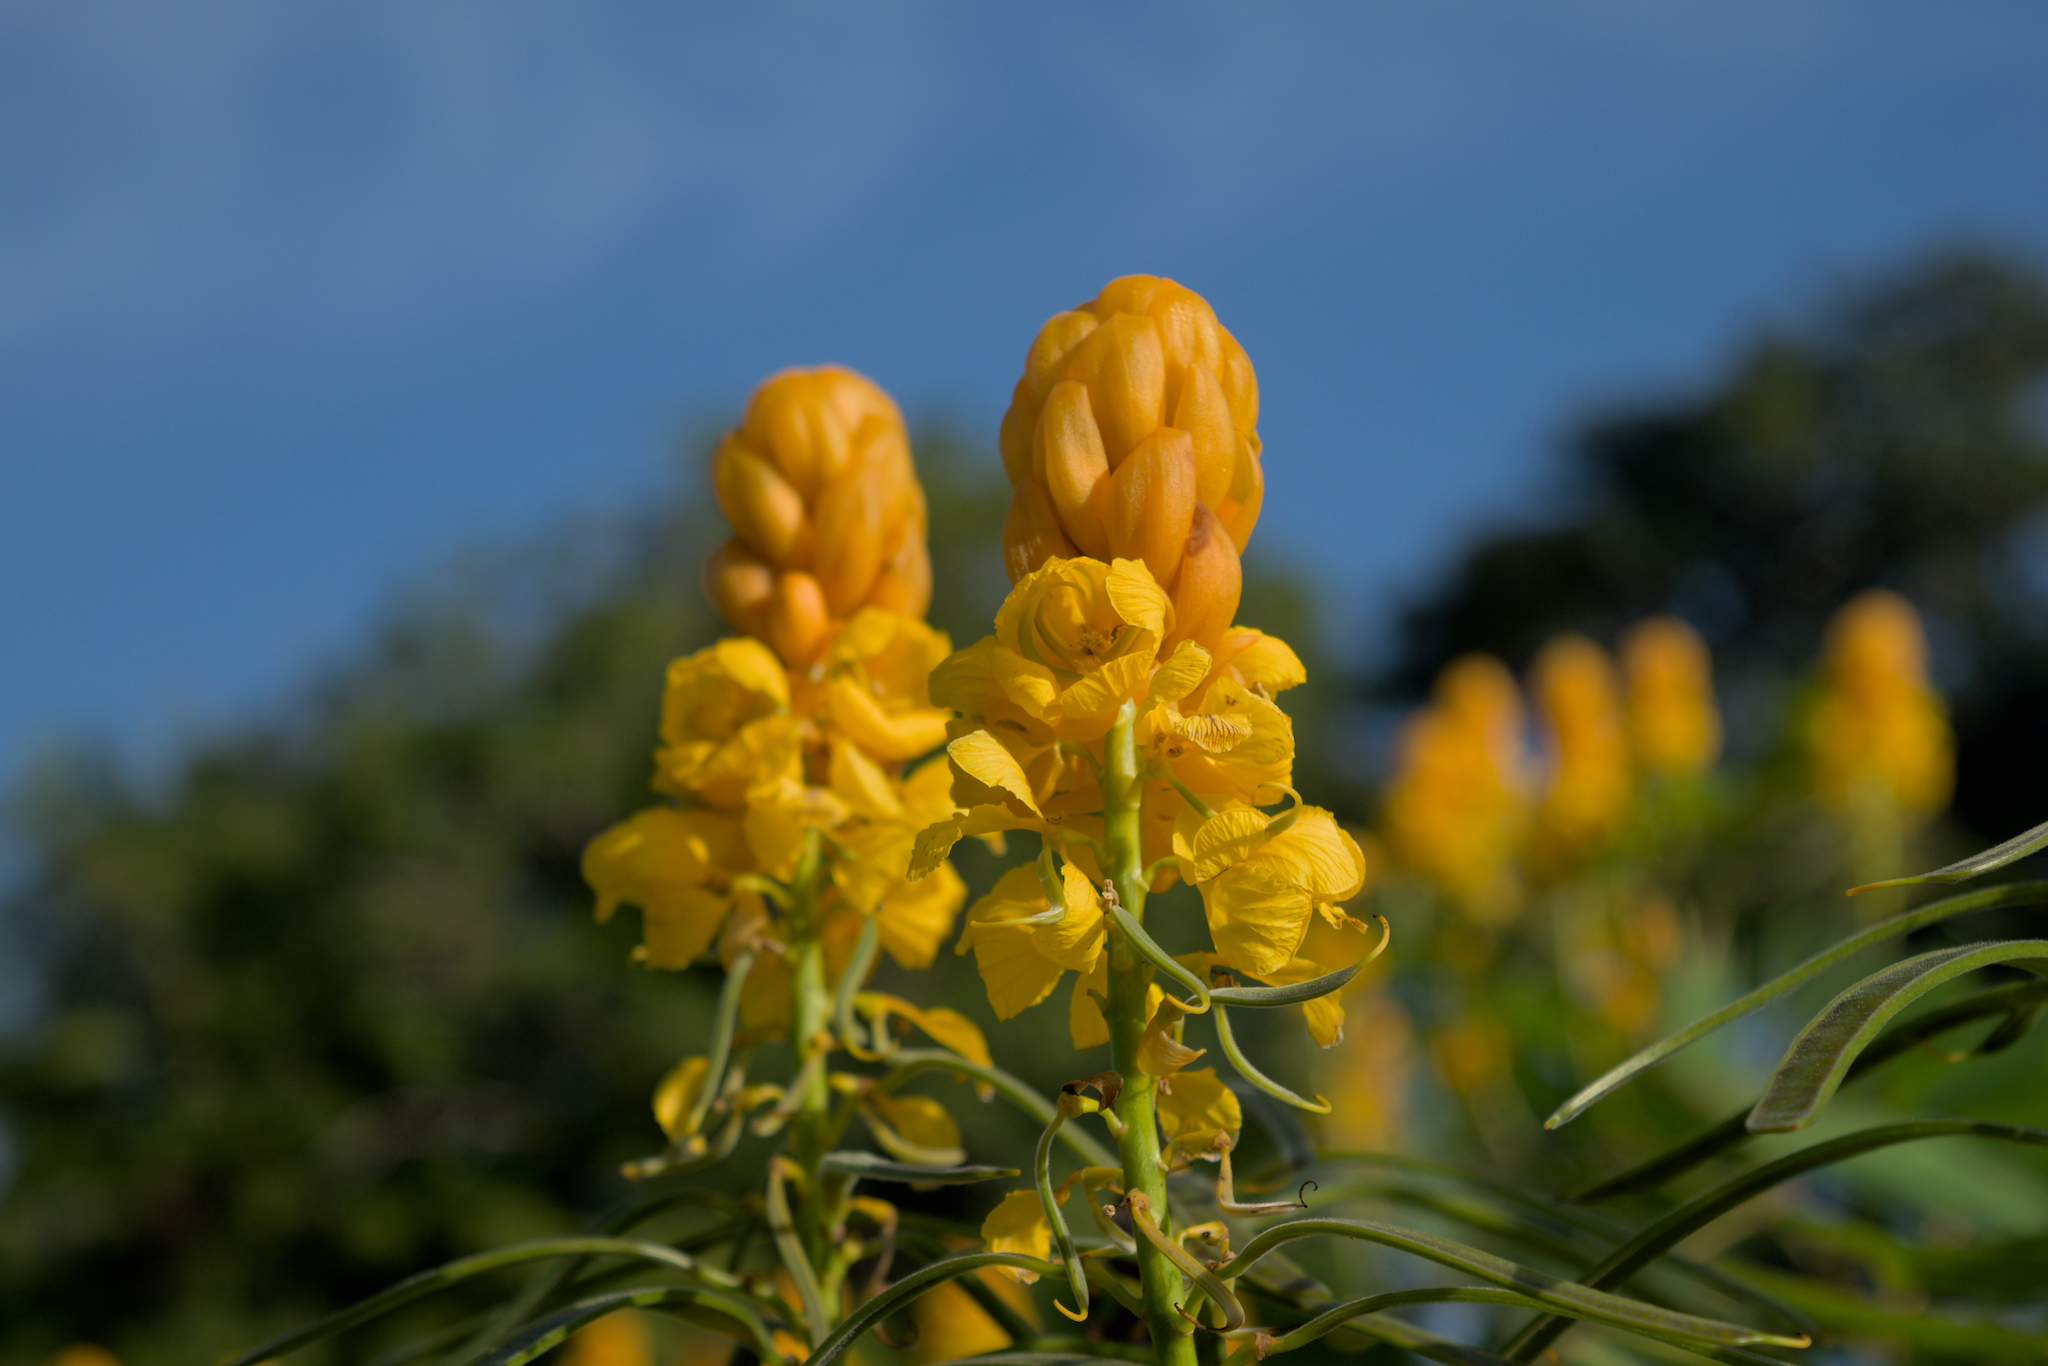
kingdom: Plantae
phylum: Tracheophyta
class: Magnoliopsida
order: Fabales
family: Fabaceae
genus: Senna
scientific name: Senna reticulata
